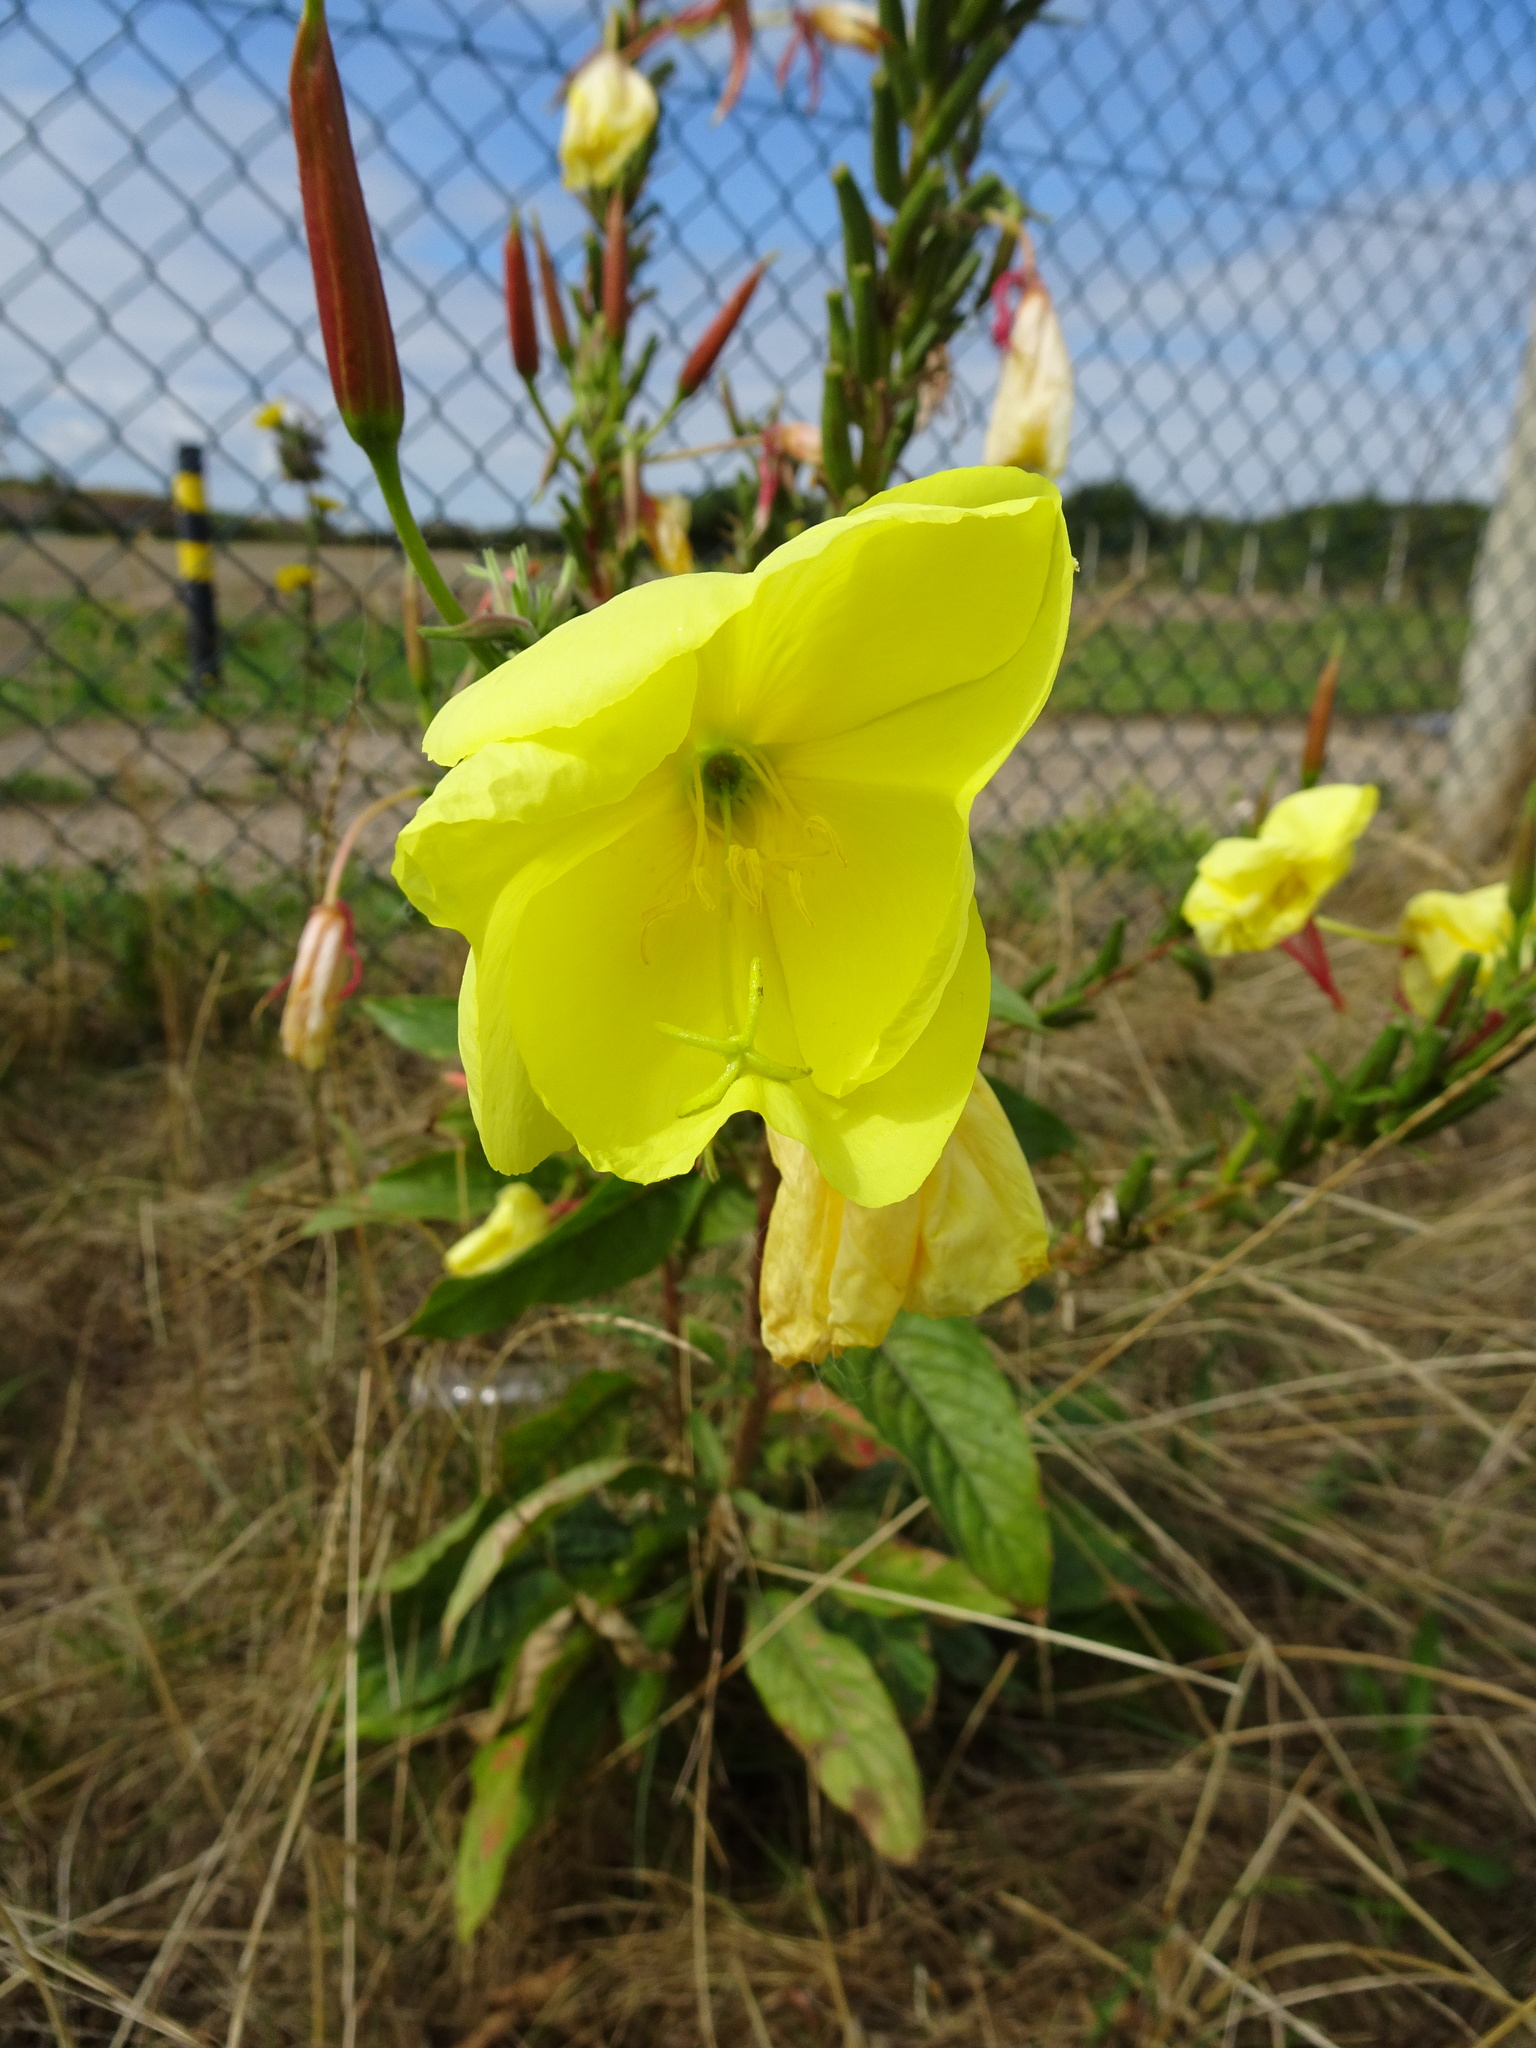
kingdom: Plantae
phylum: Tracheophyta
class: Magnoliopsida
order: Myrtales
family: Onagraceae
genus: Oenothera
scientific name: Oenothera glazioviana
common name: Large-flowered evening-primrose
